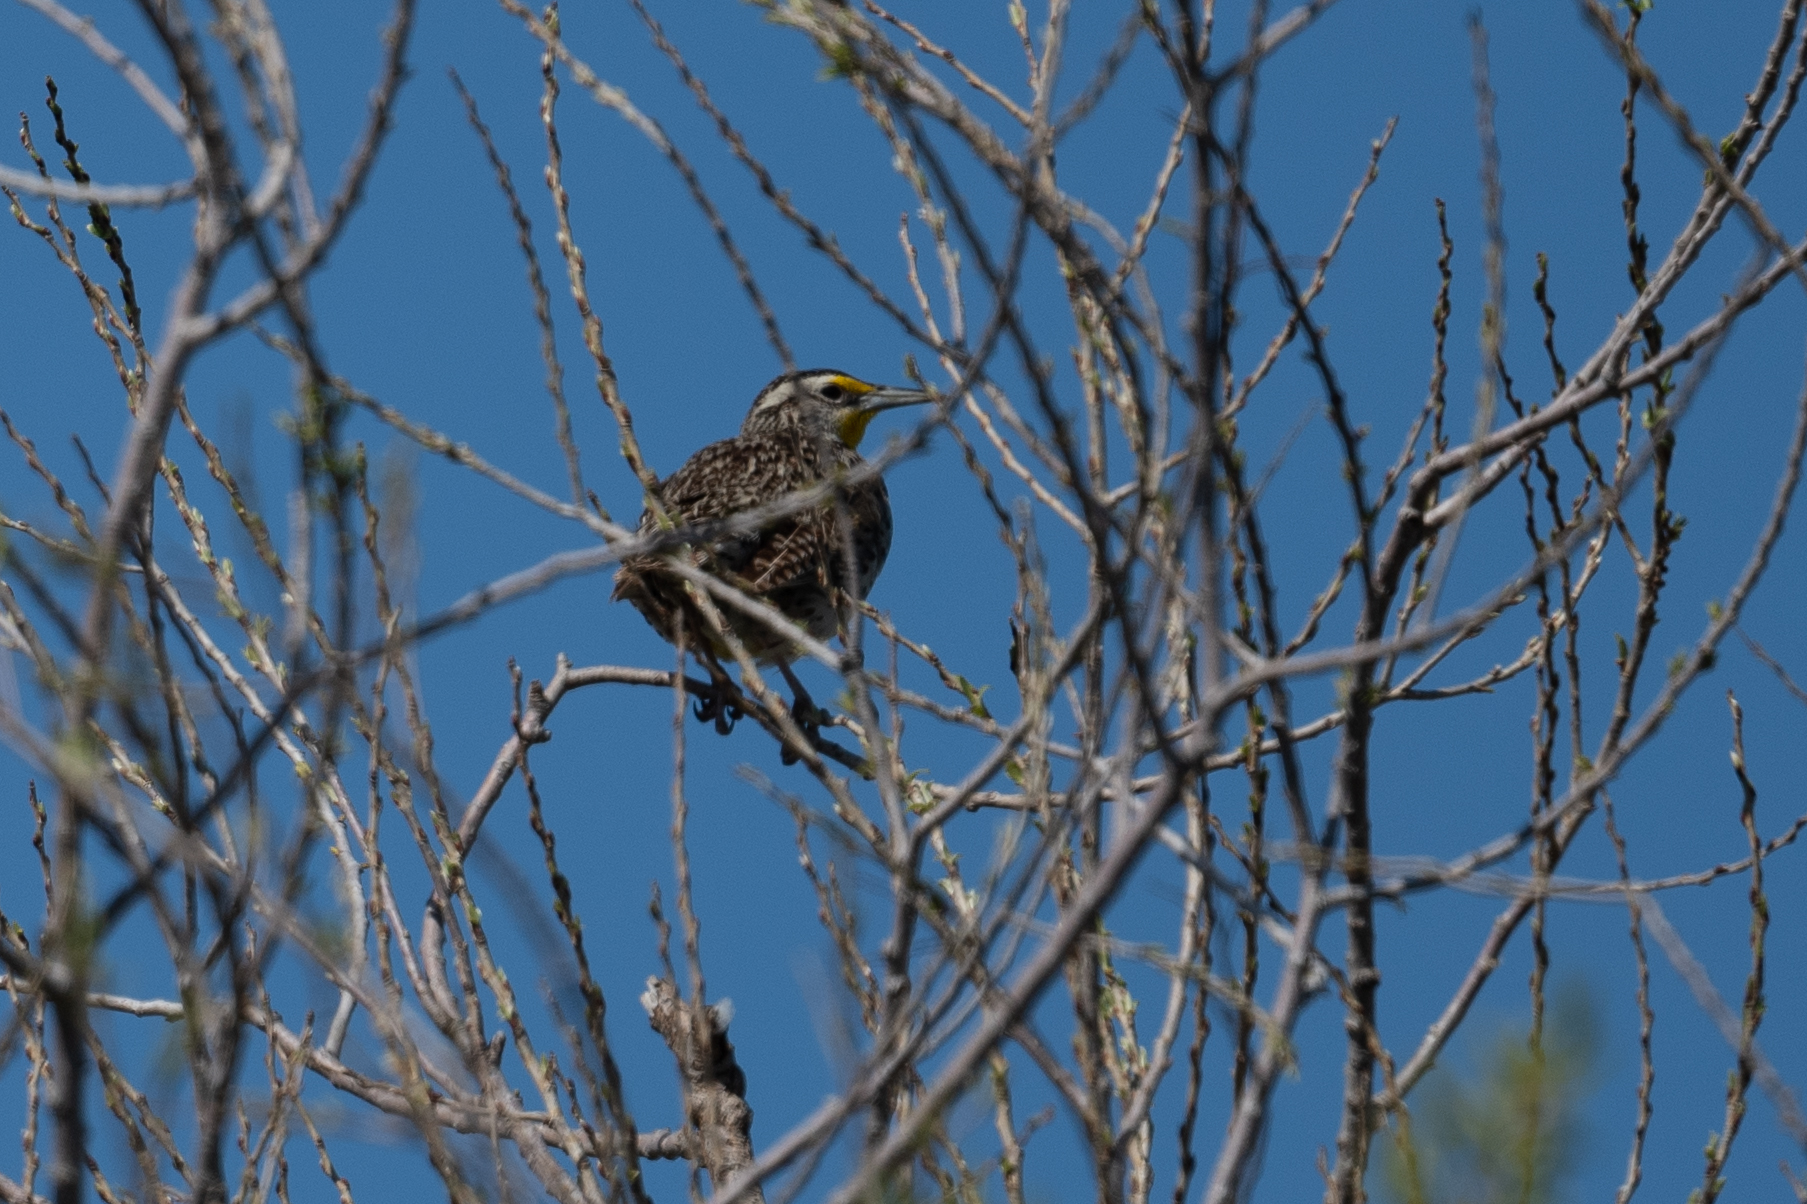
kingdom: Animalia
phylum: Chordata
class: Aves
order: Passeriformes
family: Icteridae
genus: Sturnella
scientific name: Sturnella neglecta
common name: Western meadowlark
